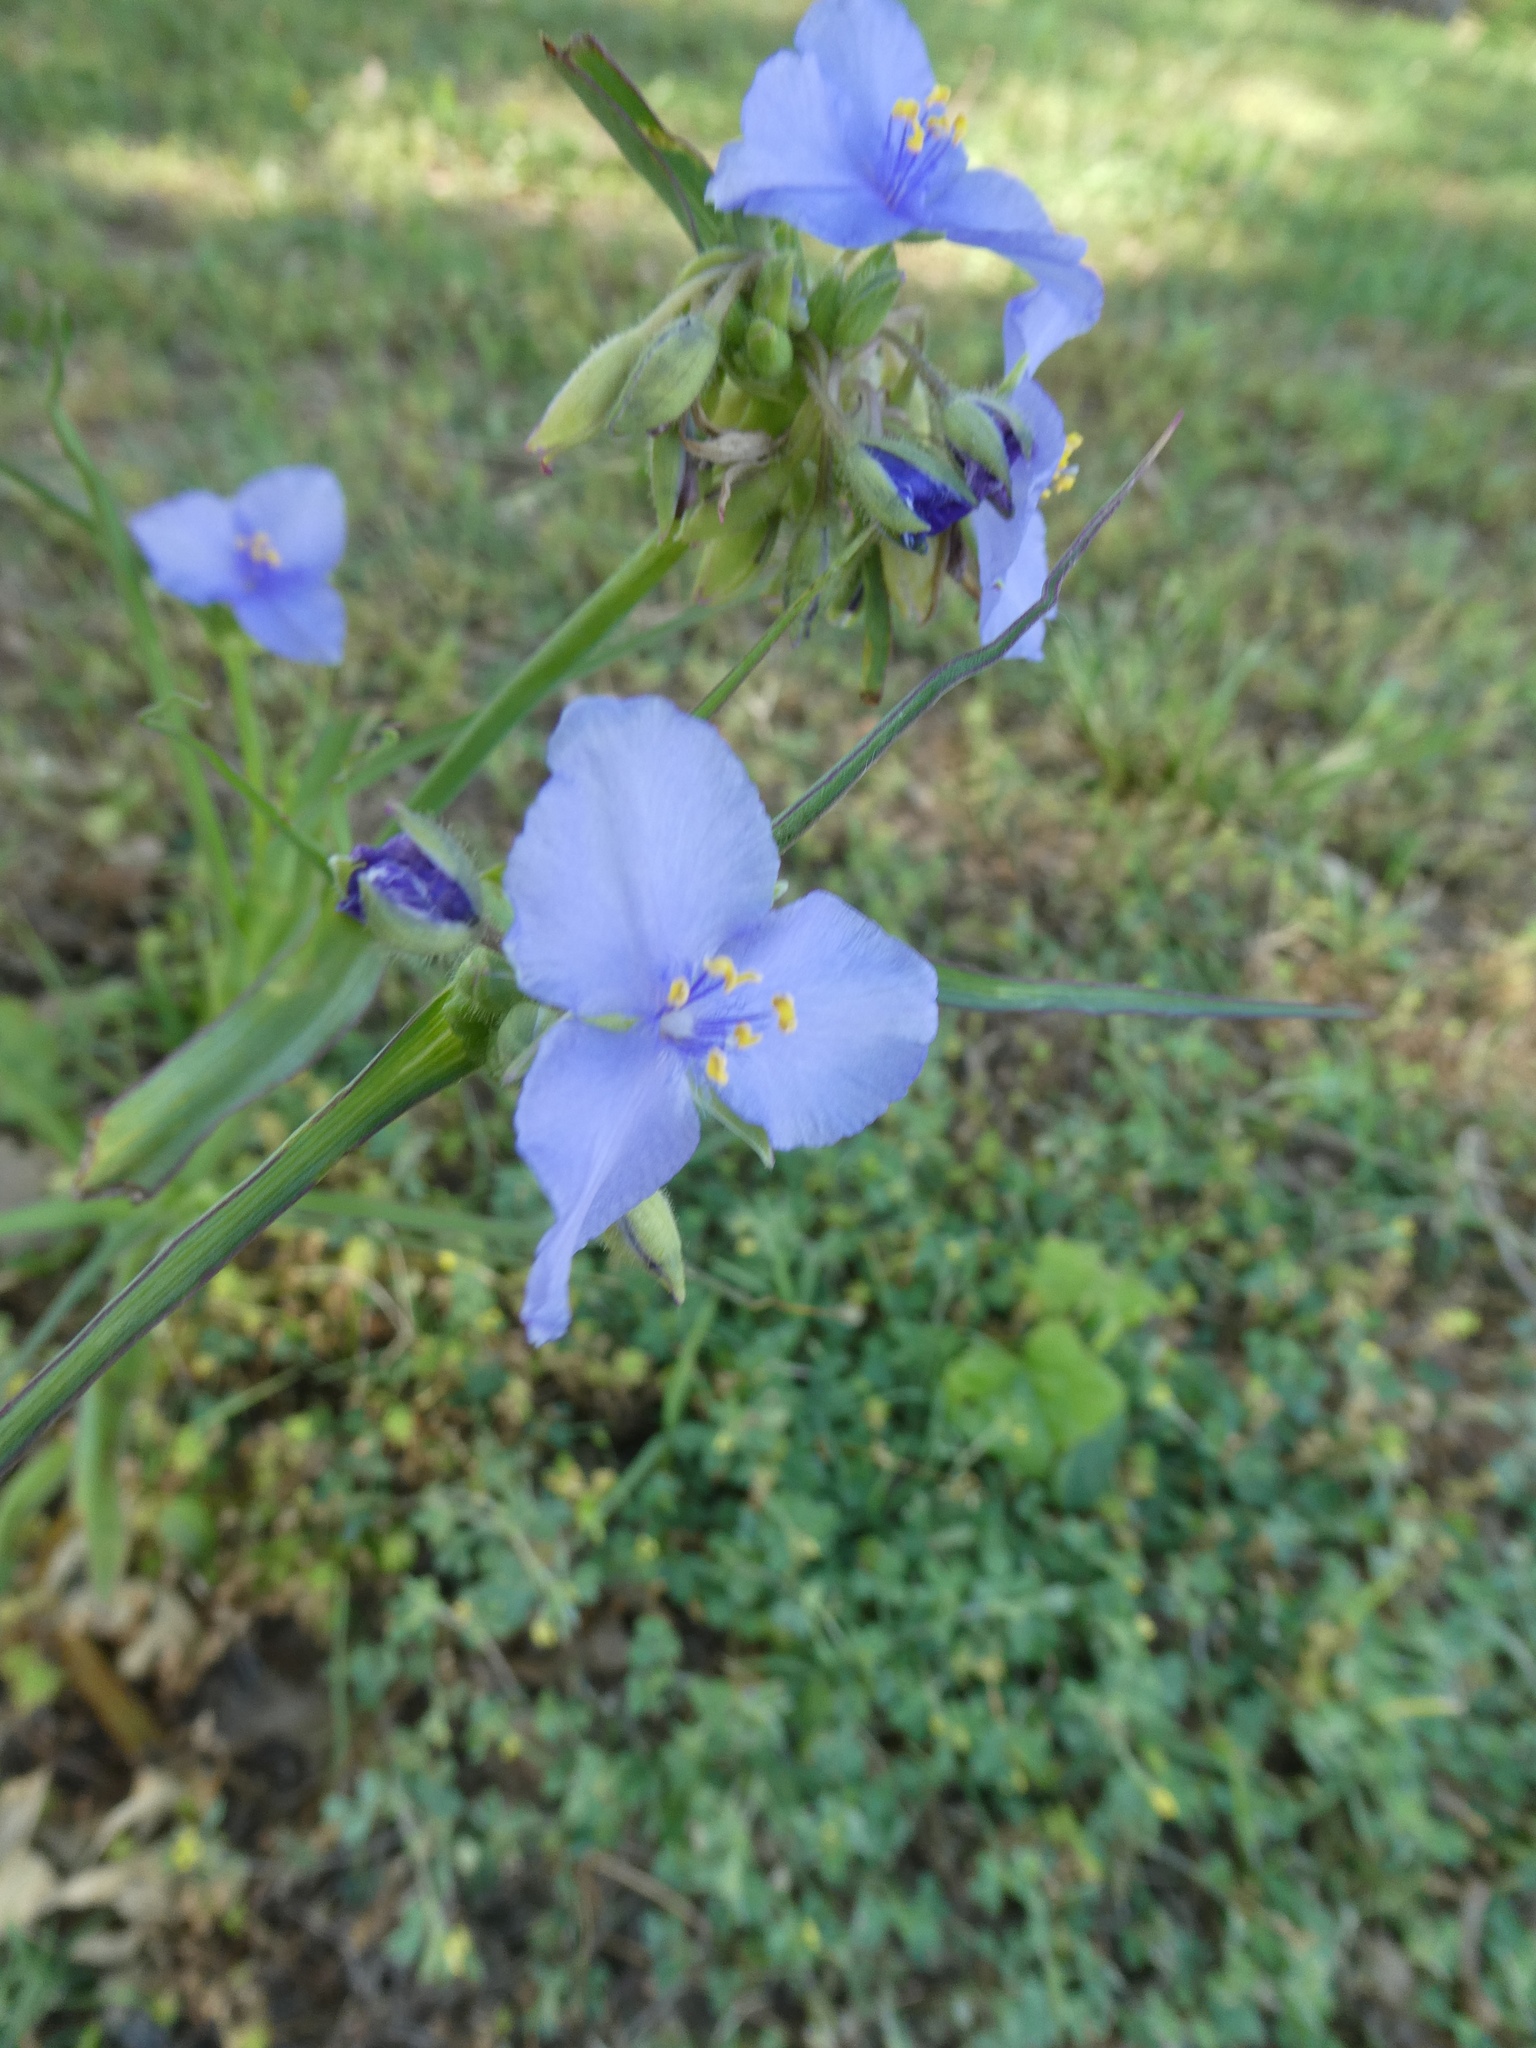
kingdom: Plantae
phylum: Tracheophyta
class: Liliopsida
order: Commelinales
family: Commelinaceae
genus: Tradescantia
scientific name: Tradescantia occidentalis
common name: Prairie spiderwort
